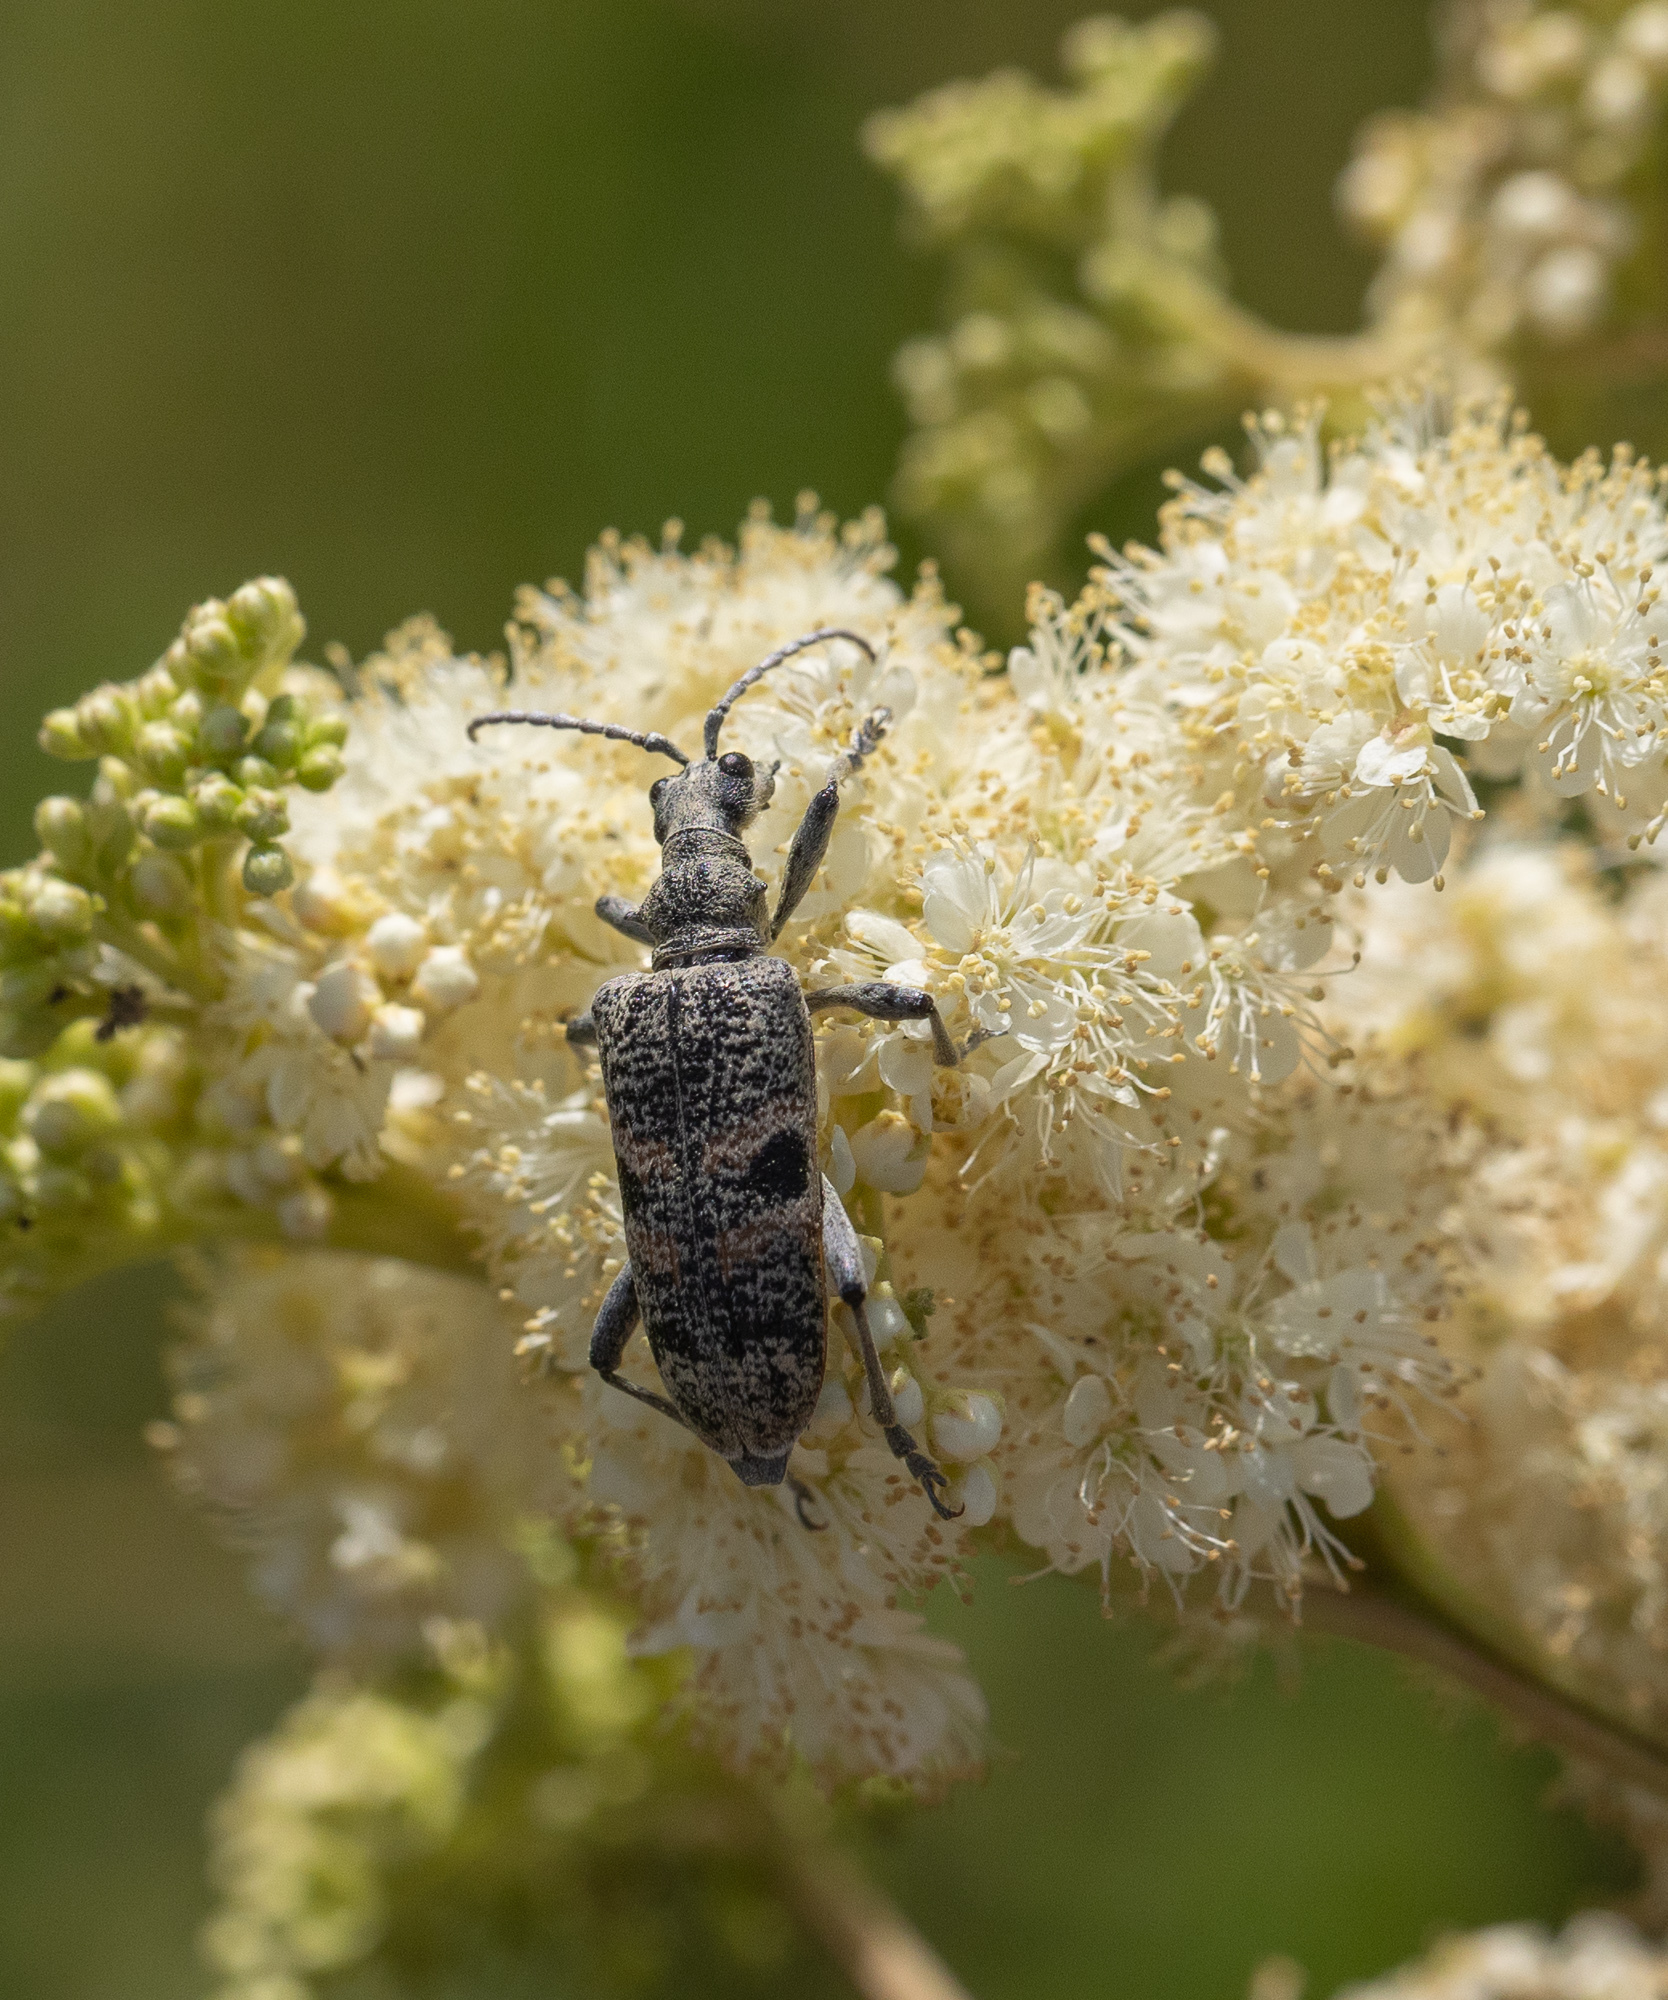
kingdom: Animalia
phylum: Arthropoda
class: Insecta
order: Coleoptera
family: Cerambycidae
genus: Rhagium
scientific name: Rhagium mordax
